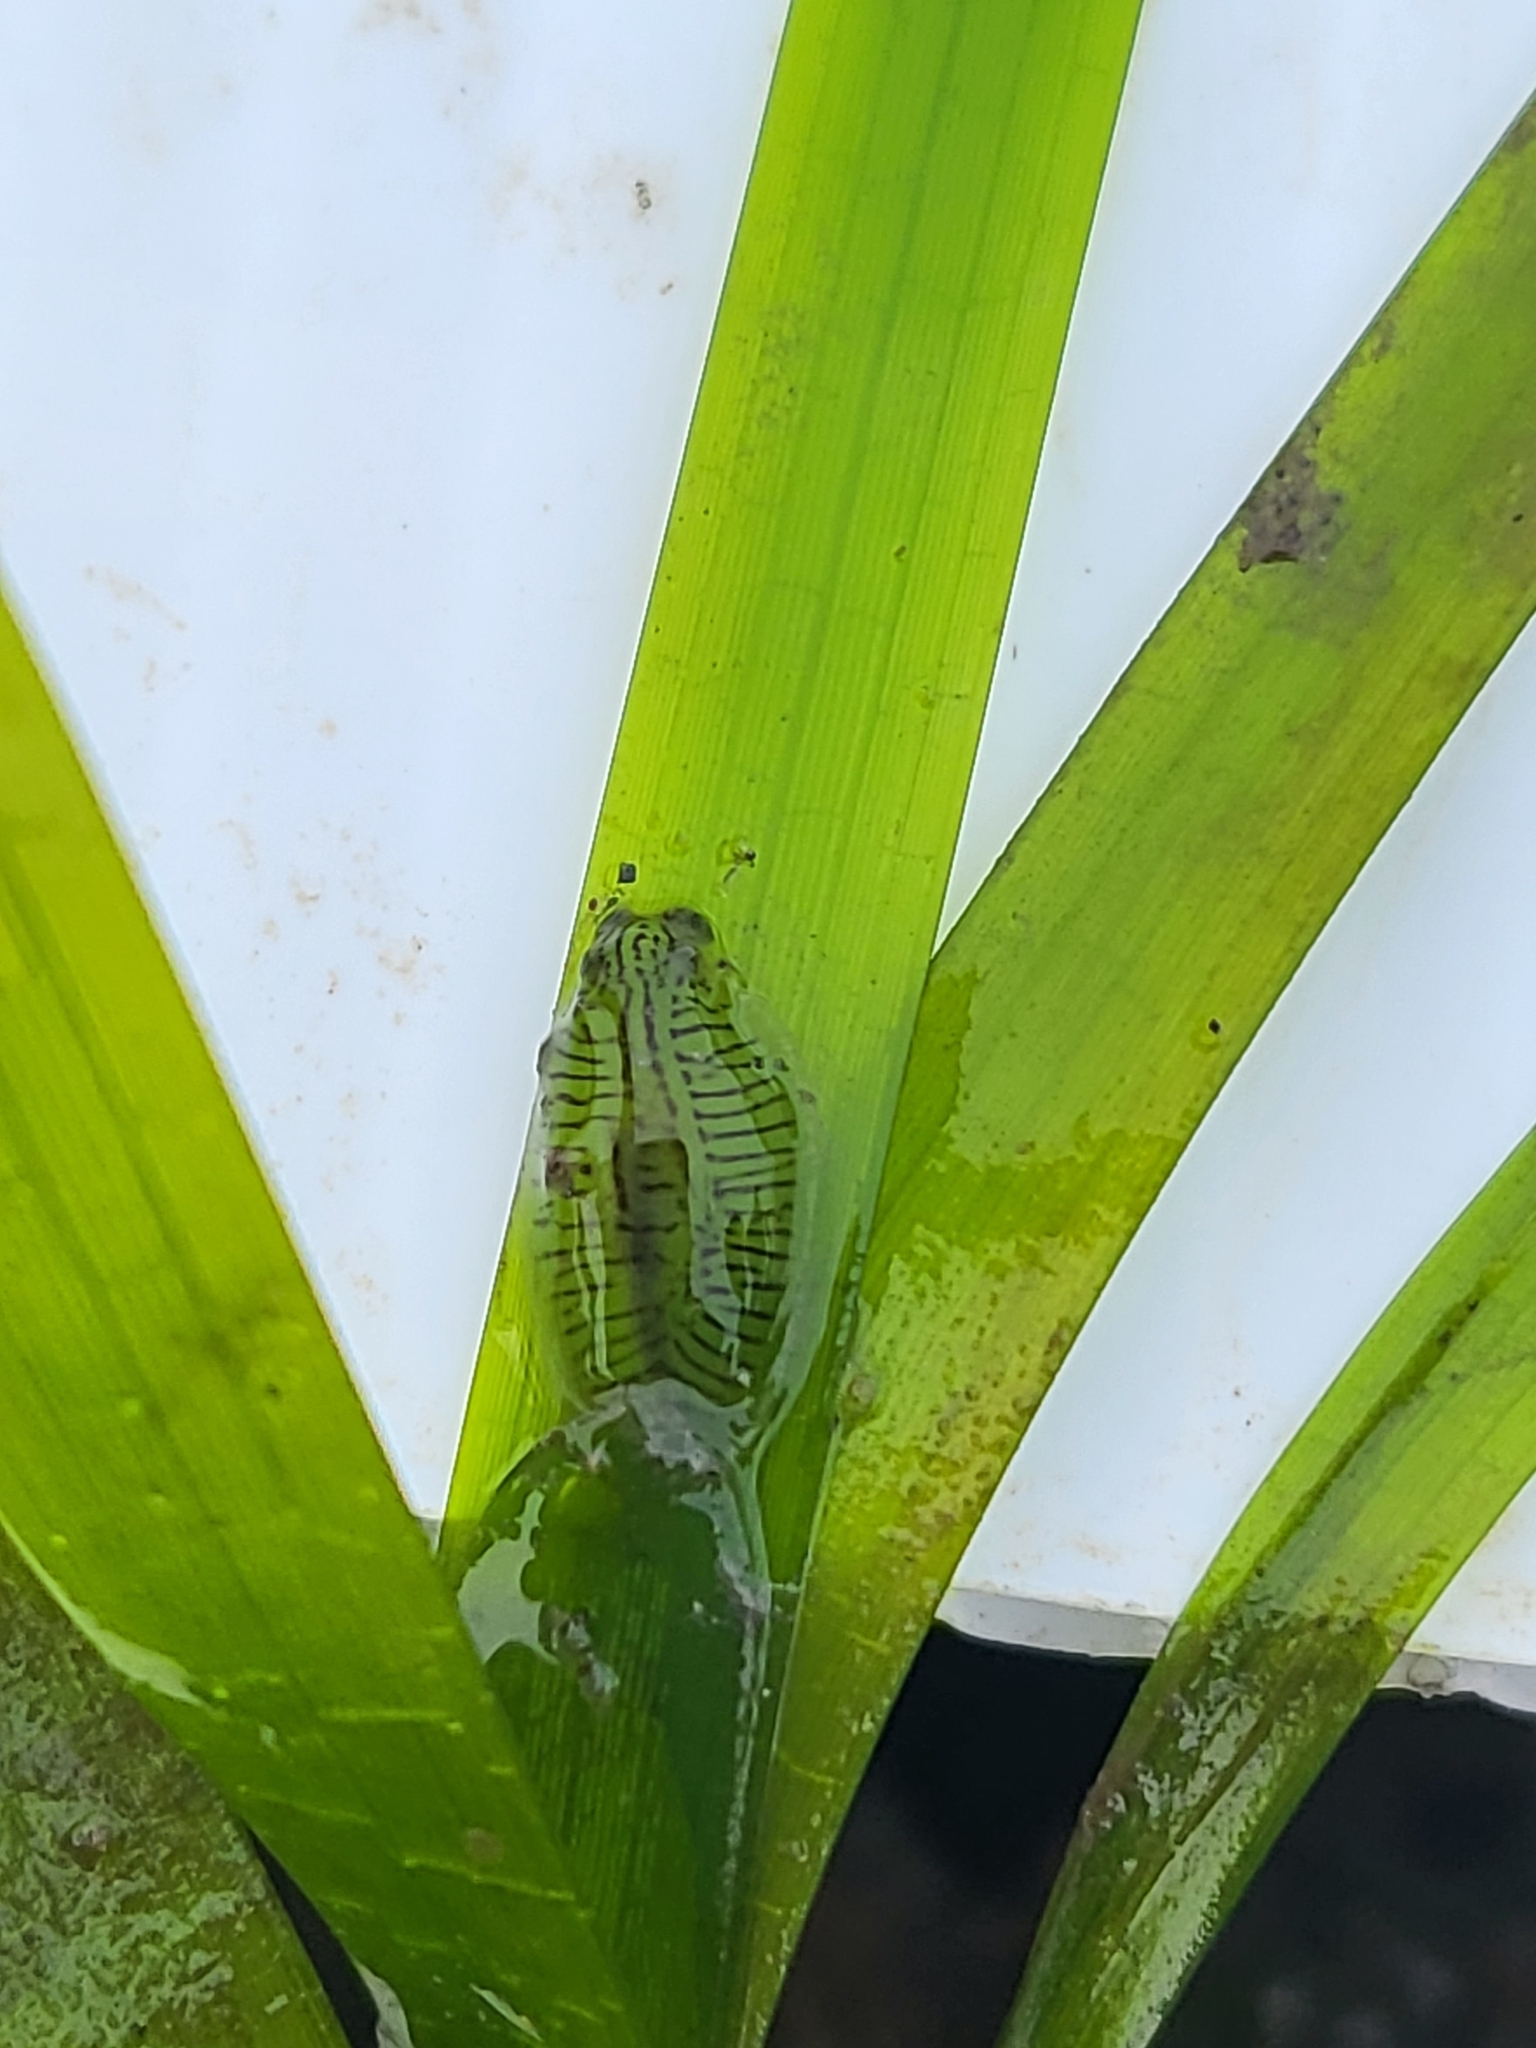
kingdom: Animalia
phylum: Mollusca
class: Gastropoda
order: Aplysiida
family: Aplysiidae
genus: Phyllaplysia
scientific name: Phyllaplysia taylori
